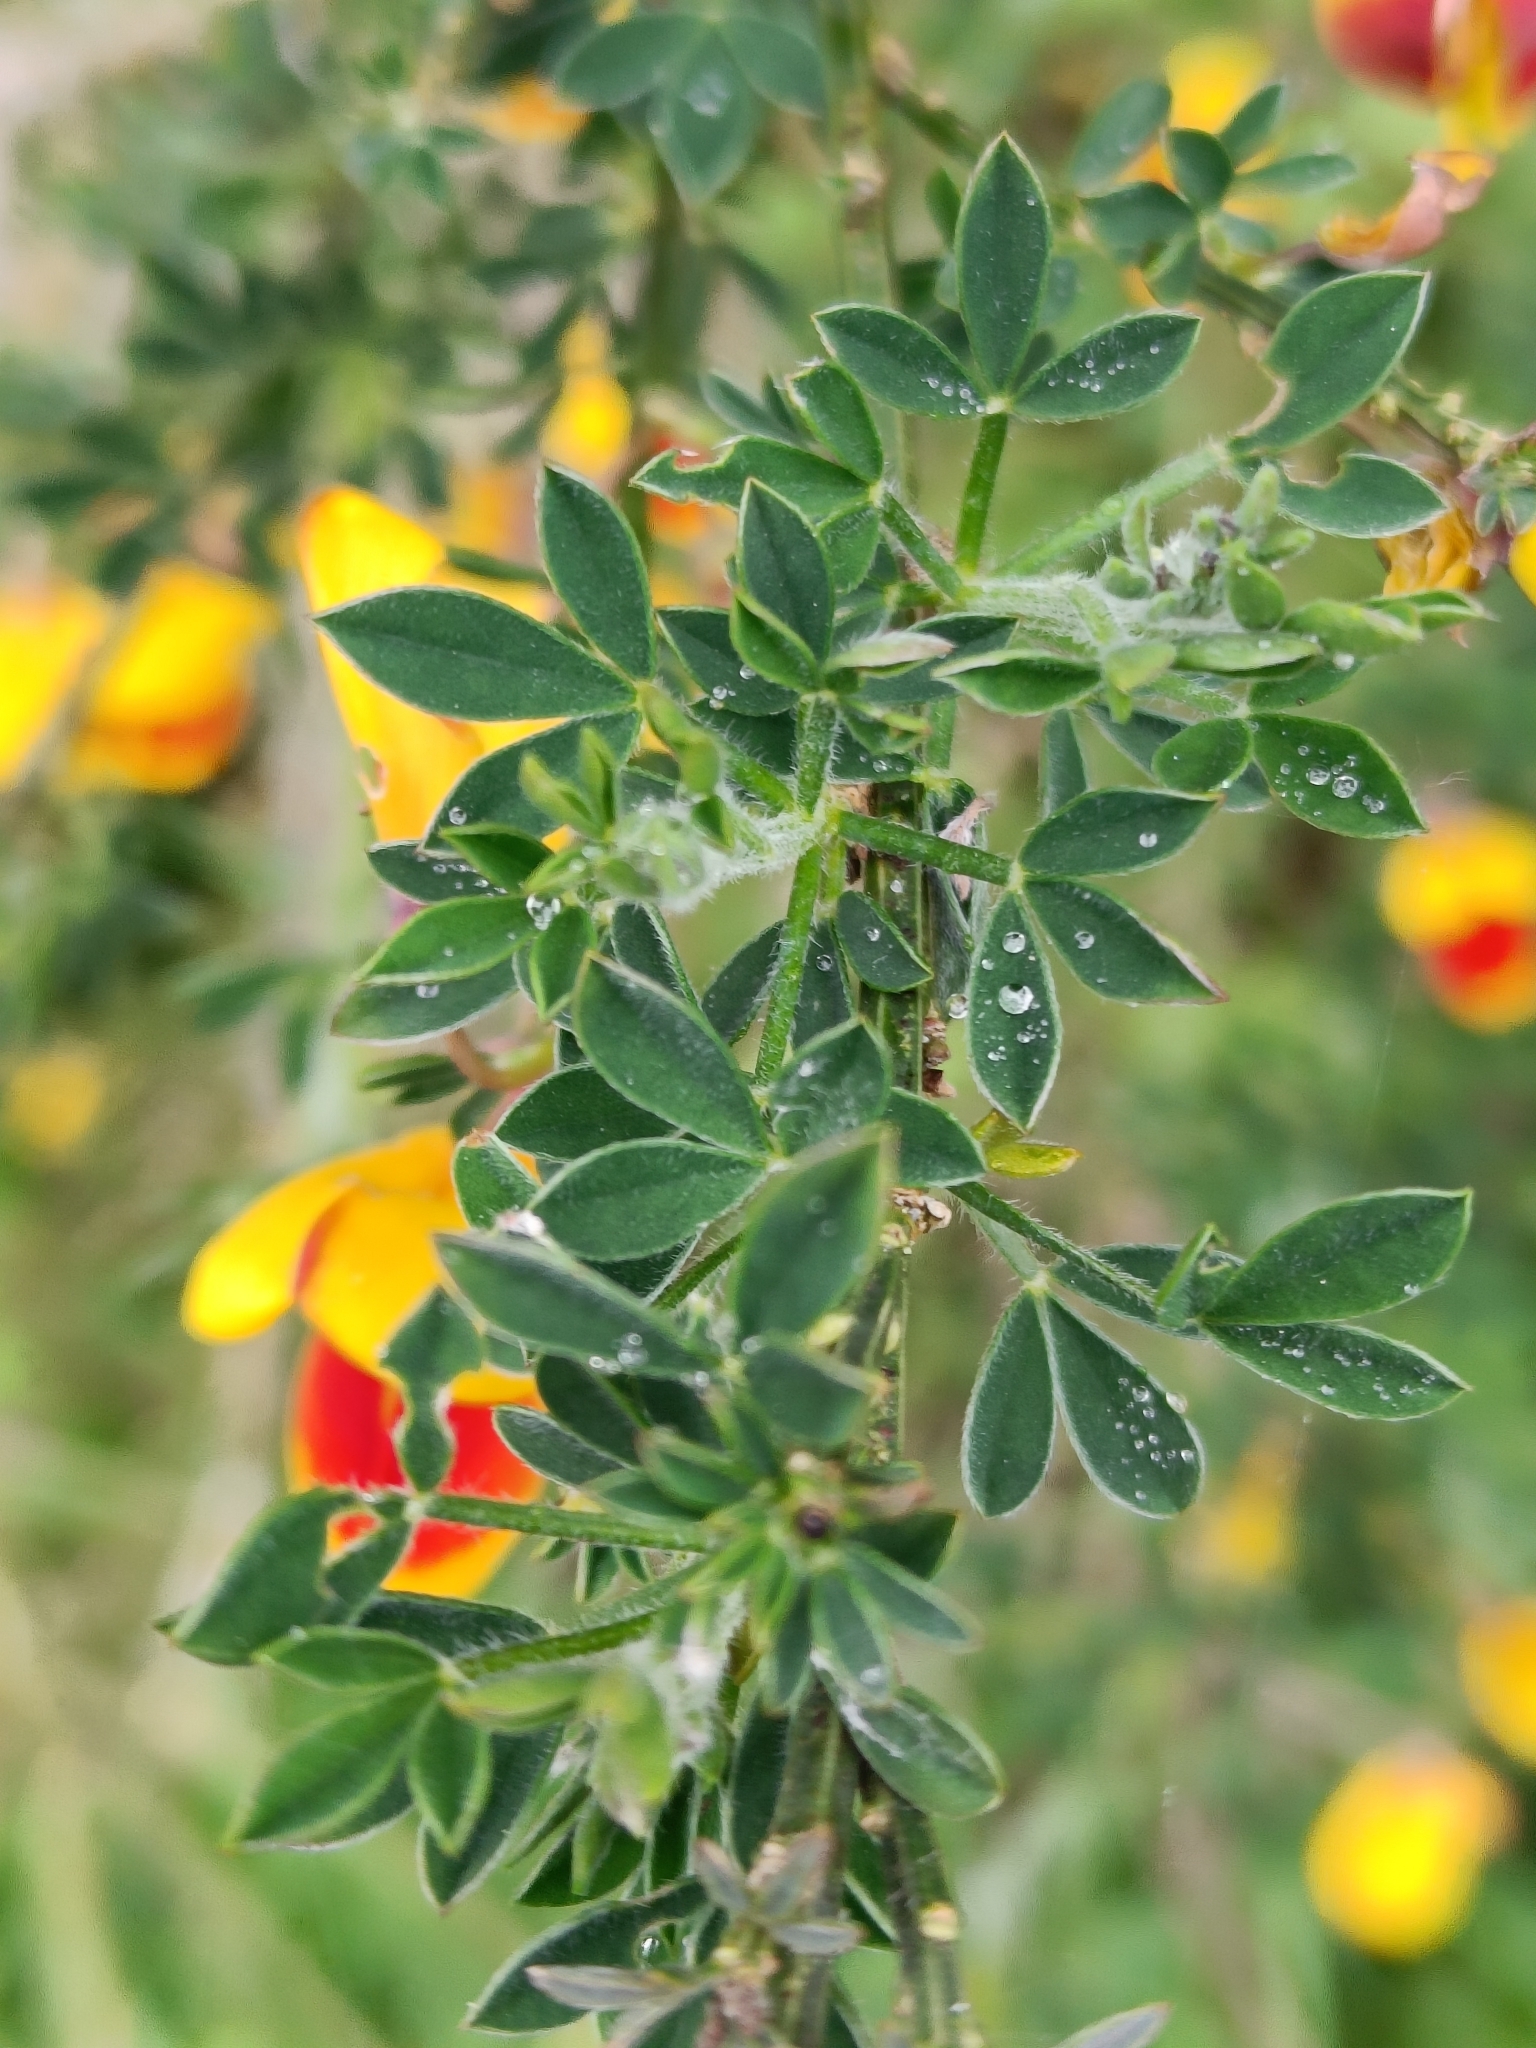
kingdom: Plantae
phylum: Tracheophyta
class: Magnoliopsida
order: Fabales
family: Fabaceae
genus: Cytisus
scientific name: Cytisus scoparius
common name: Scotch broom
